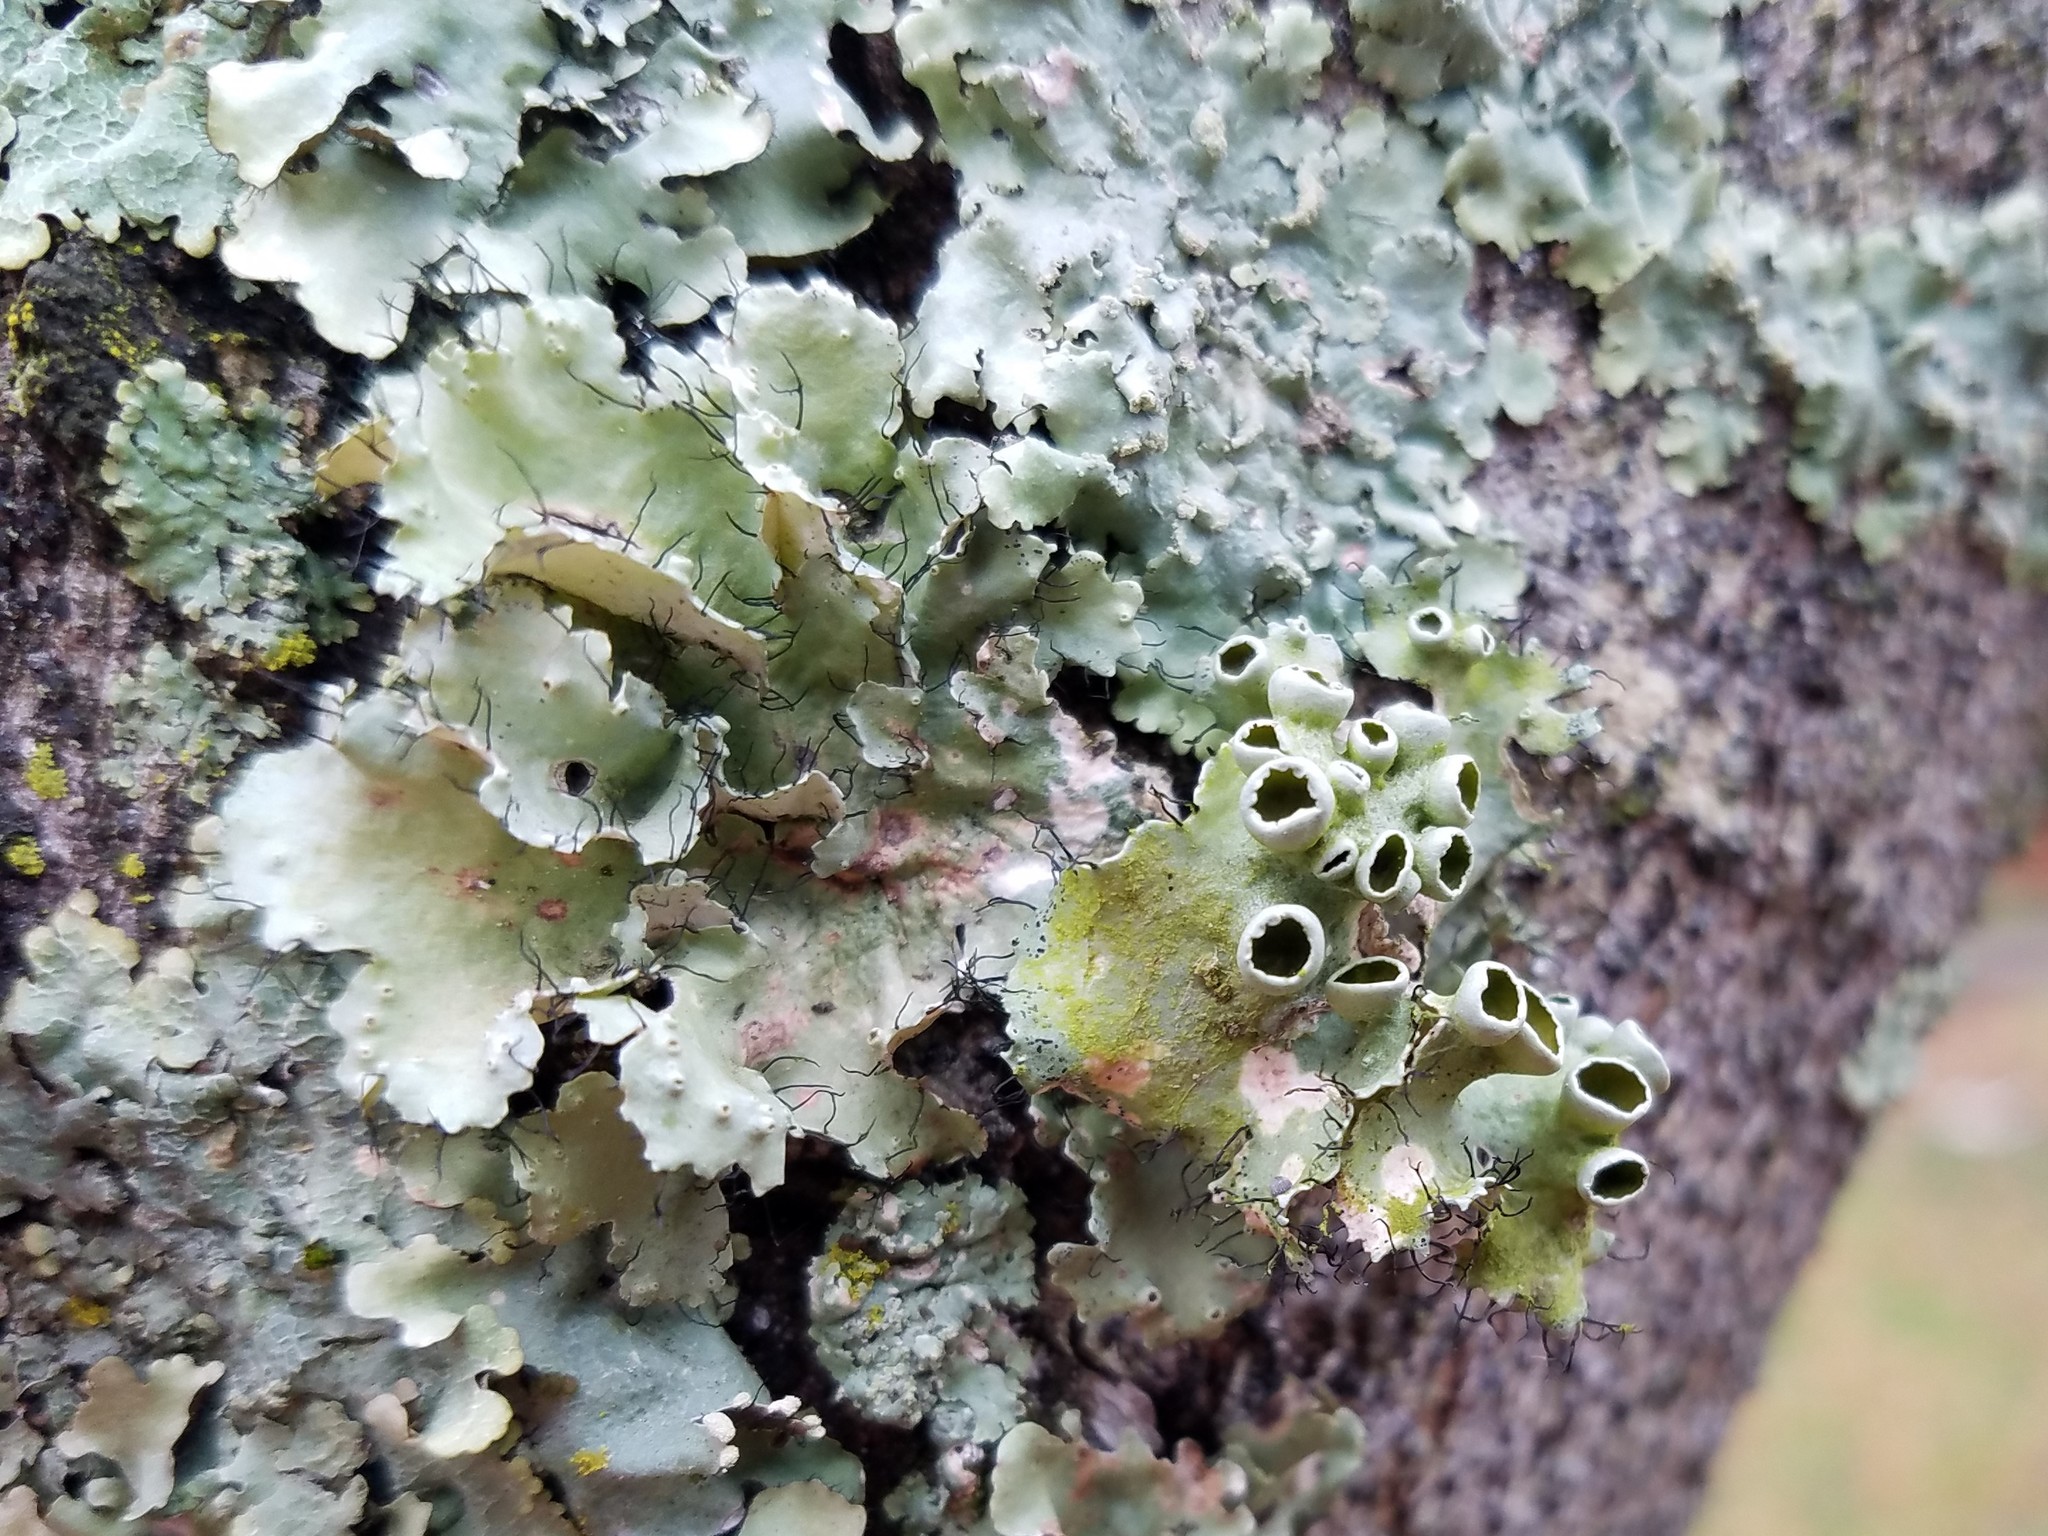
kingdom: Fungi
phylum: Ascomycota
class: Lecanoromycetes
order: Lecanorales
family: Parmeliaceae
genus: Parmotrema
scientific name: Parmotrema perforatum
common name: Perforated ruffle lichen
